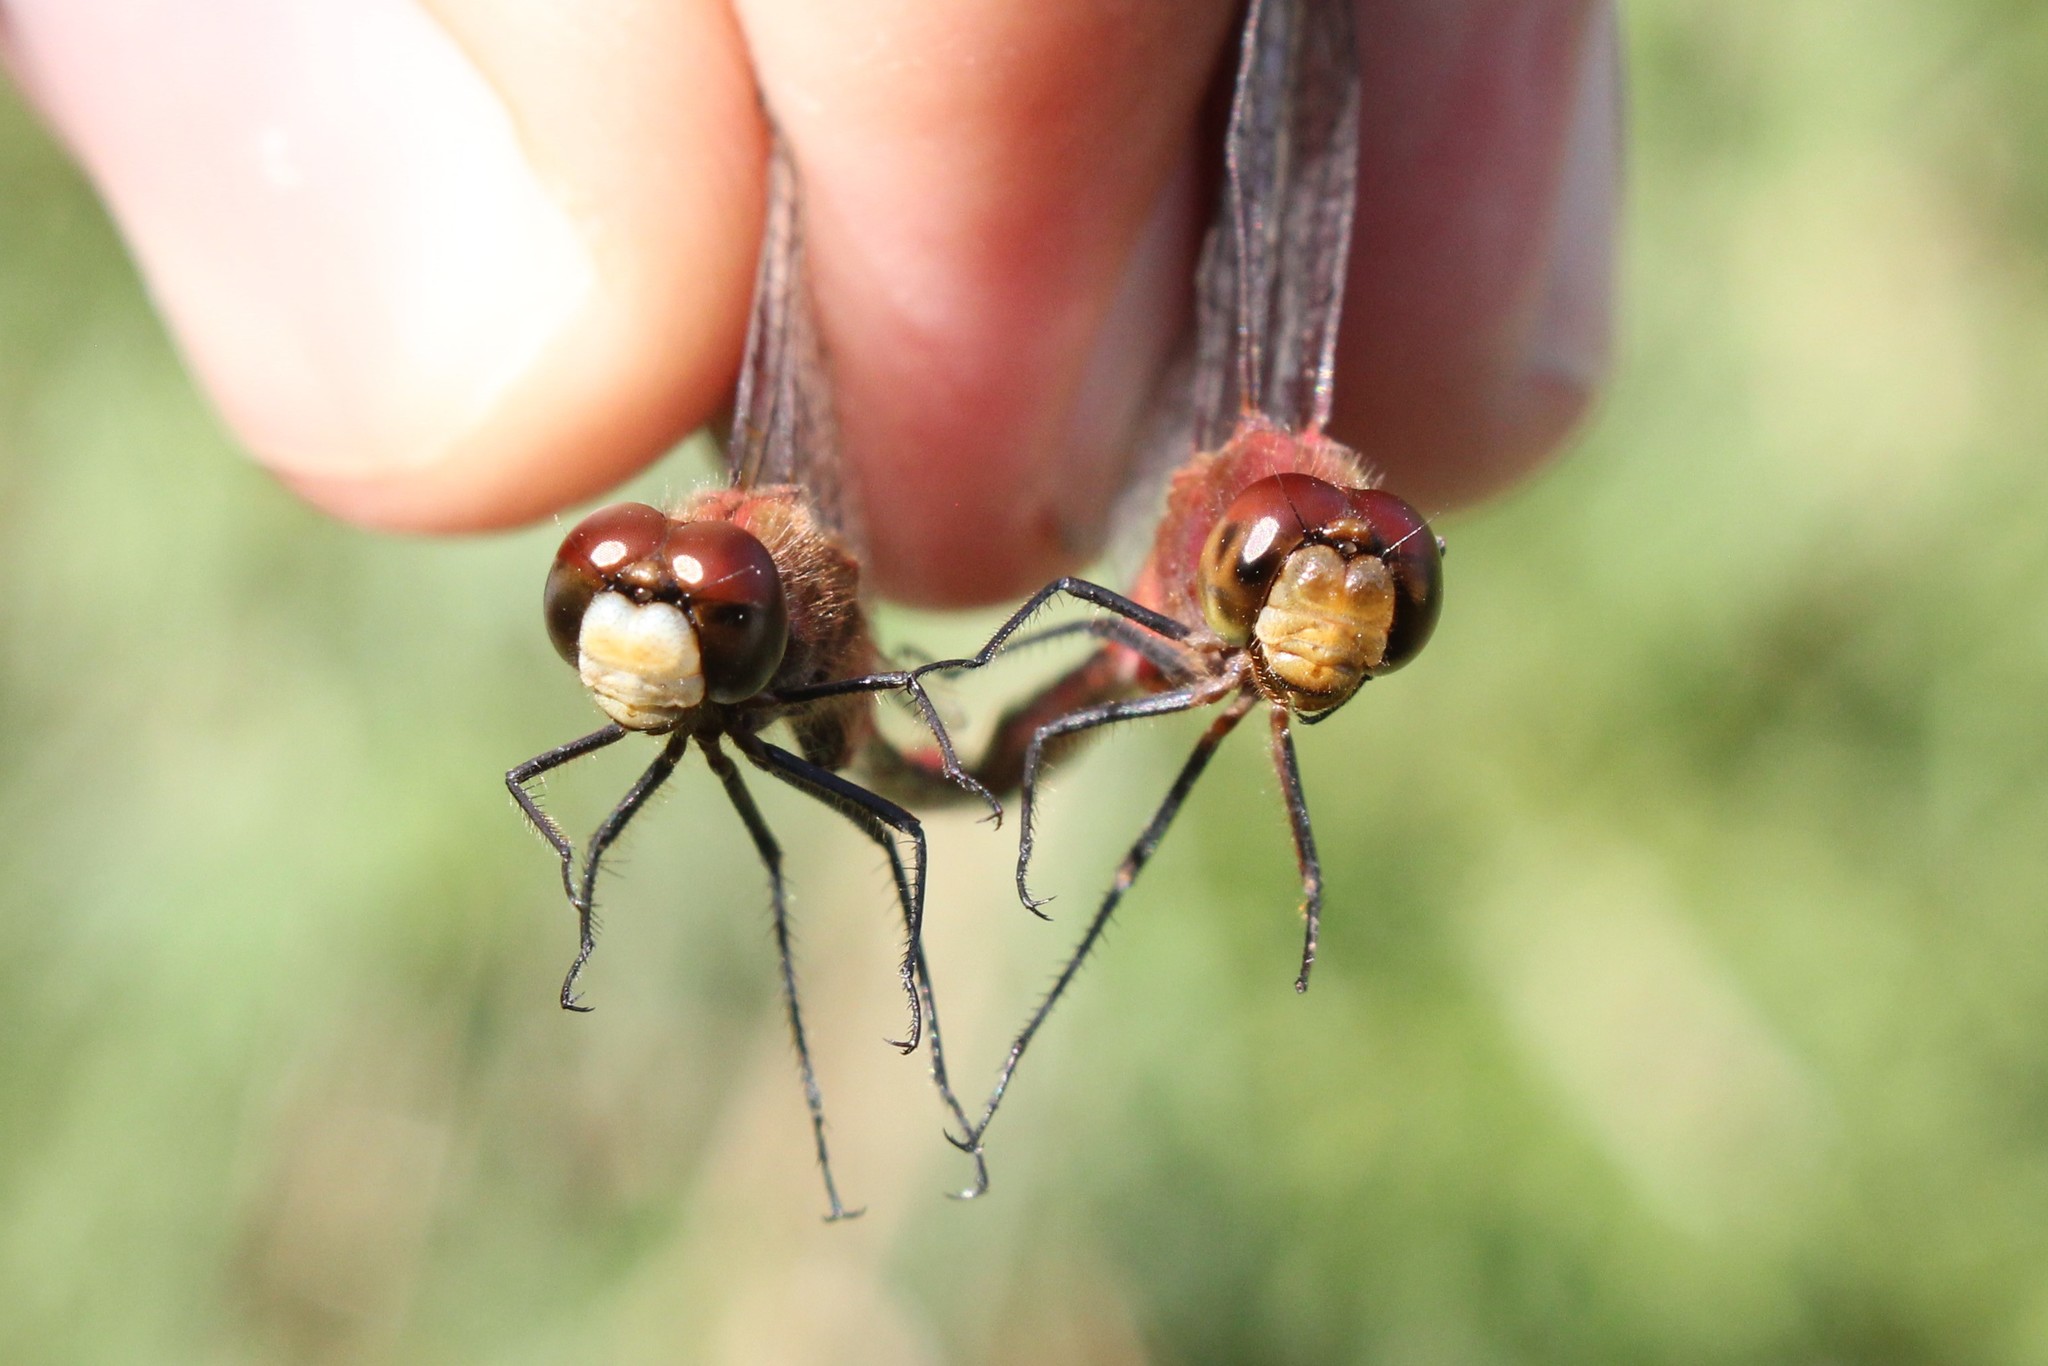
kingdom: Animalia
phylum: Arthropoda
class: Insecta
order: Odonata
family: Libellulidae
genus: Sympetrum
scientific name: Sympetrum rubicundulum
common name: Ruby meadowhawk
